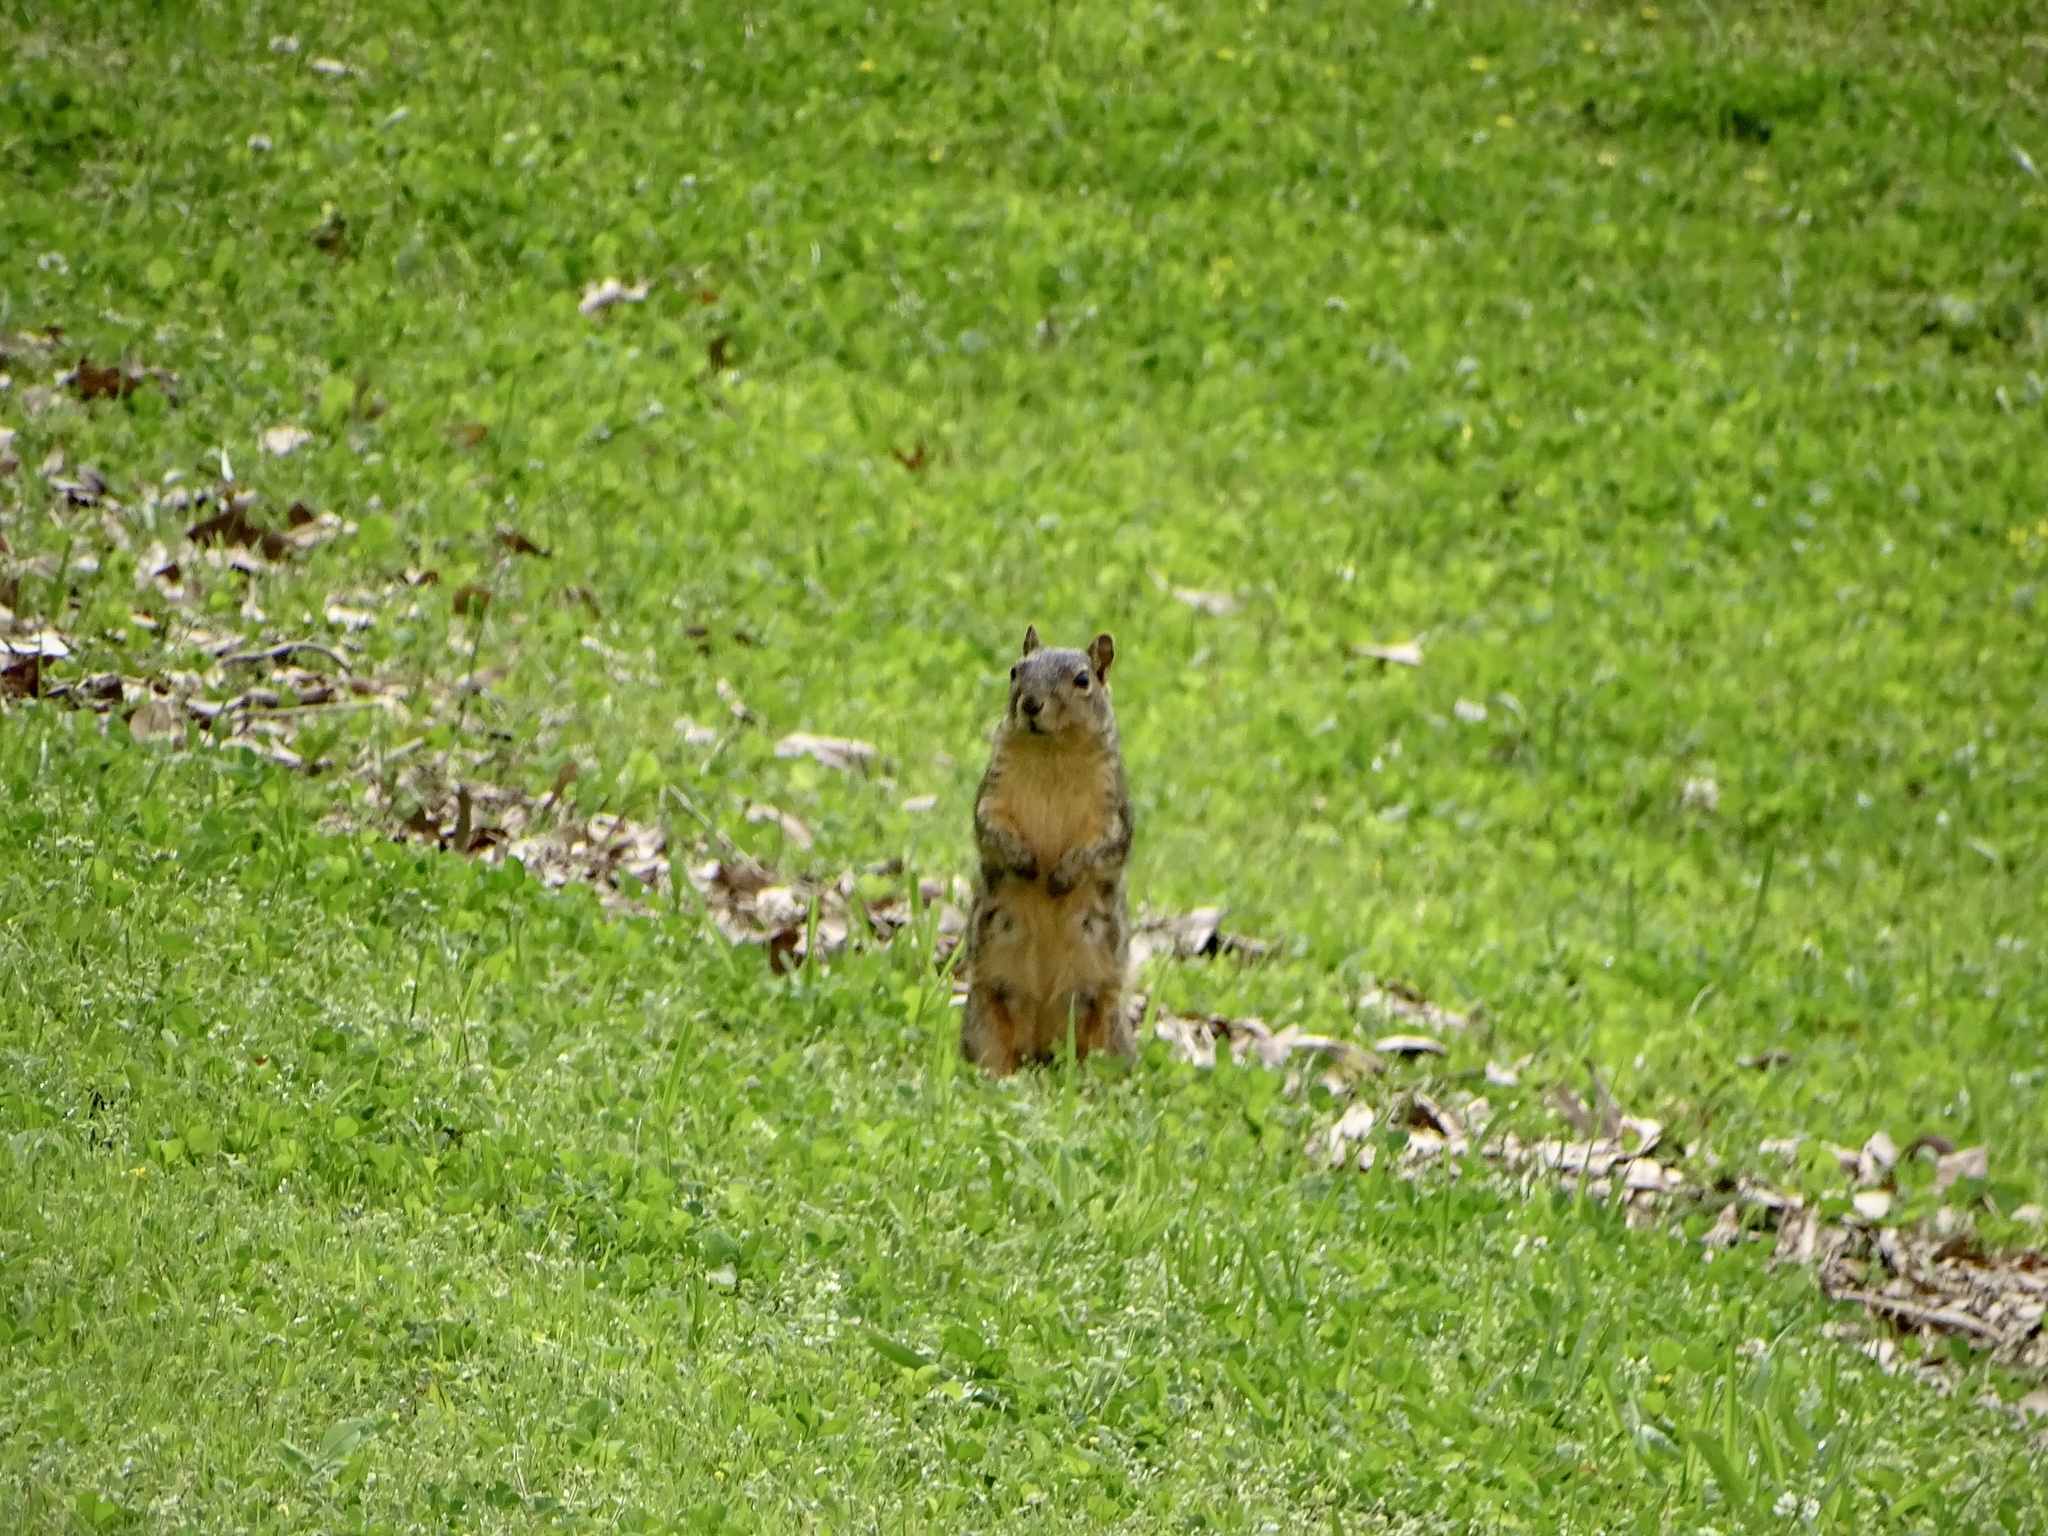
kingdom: Animalia
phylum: Chordata
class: Mammalia
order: Rodentia
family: Sciuridae
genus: Sciurus
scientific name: Sciurus niger
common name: Fox squirrel
